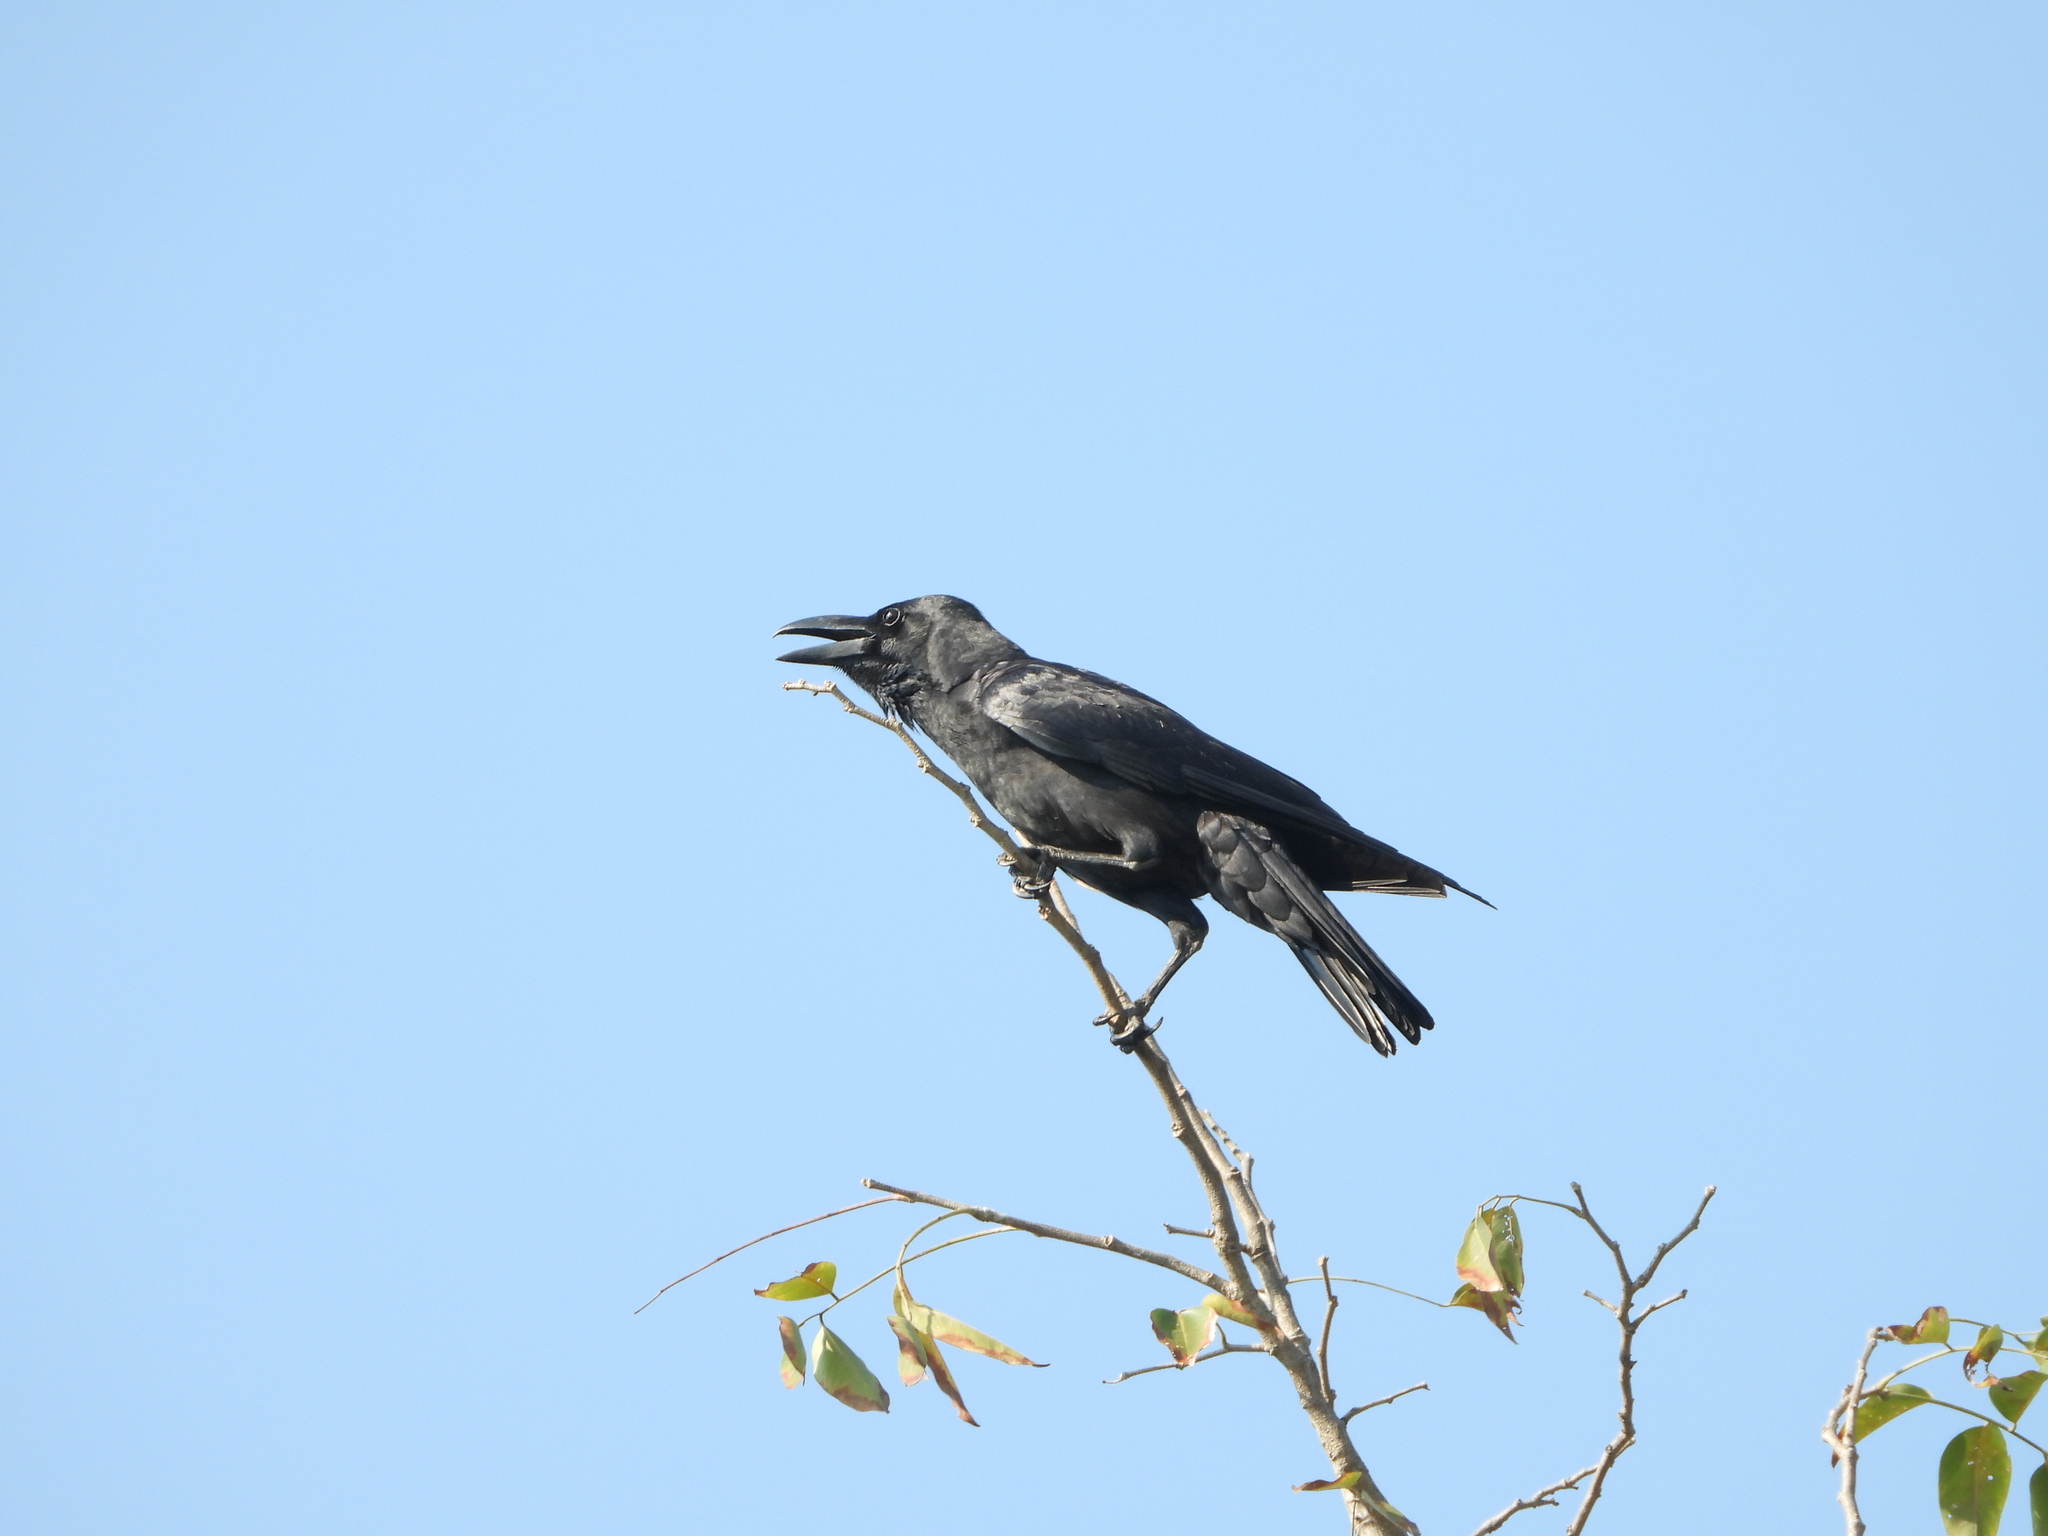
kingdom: Animalia
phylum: Chordata
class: Aves
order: Passeriformes
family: Corvidae
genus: Corvus
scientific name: Corvus macrorhynchos
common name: Large-billed crow
